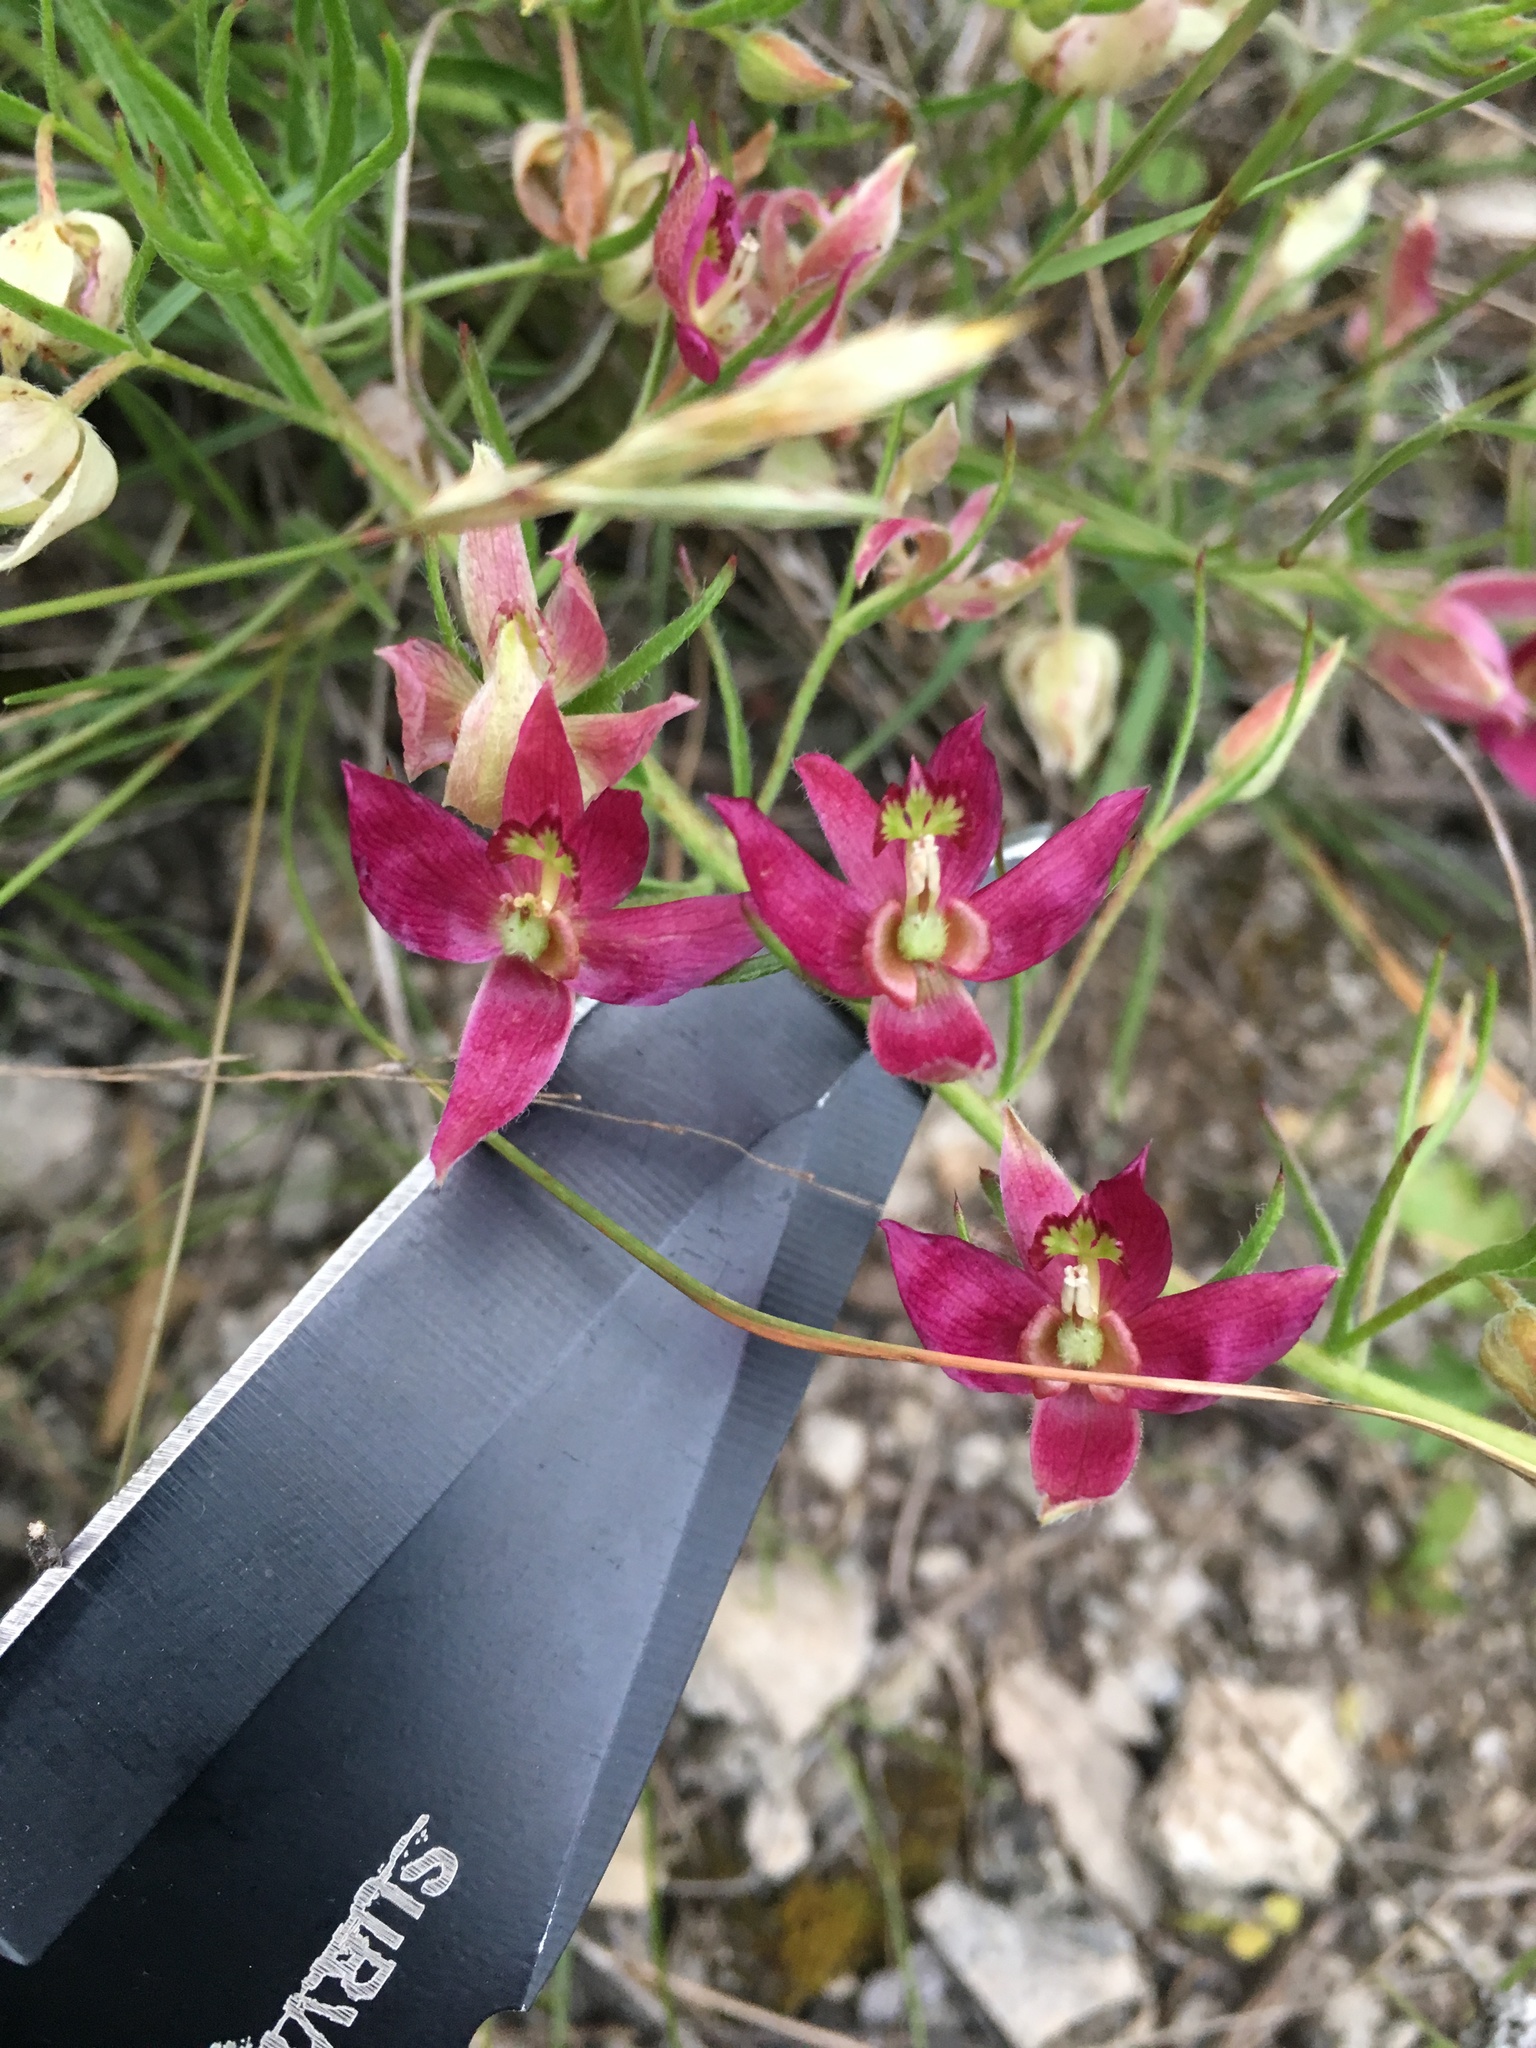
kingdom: Plantae
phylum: Tracheophyta
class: Magnoliopsida
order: Zygophyllales
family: Krameriaceae
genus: Krameria
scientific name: Krameria lanceolata
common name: Ratany
